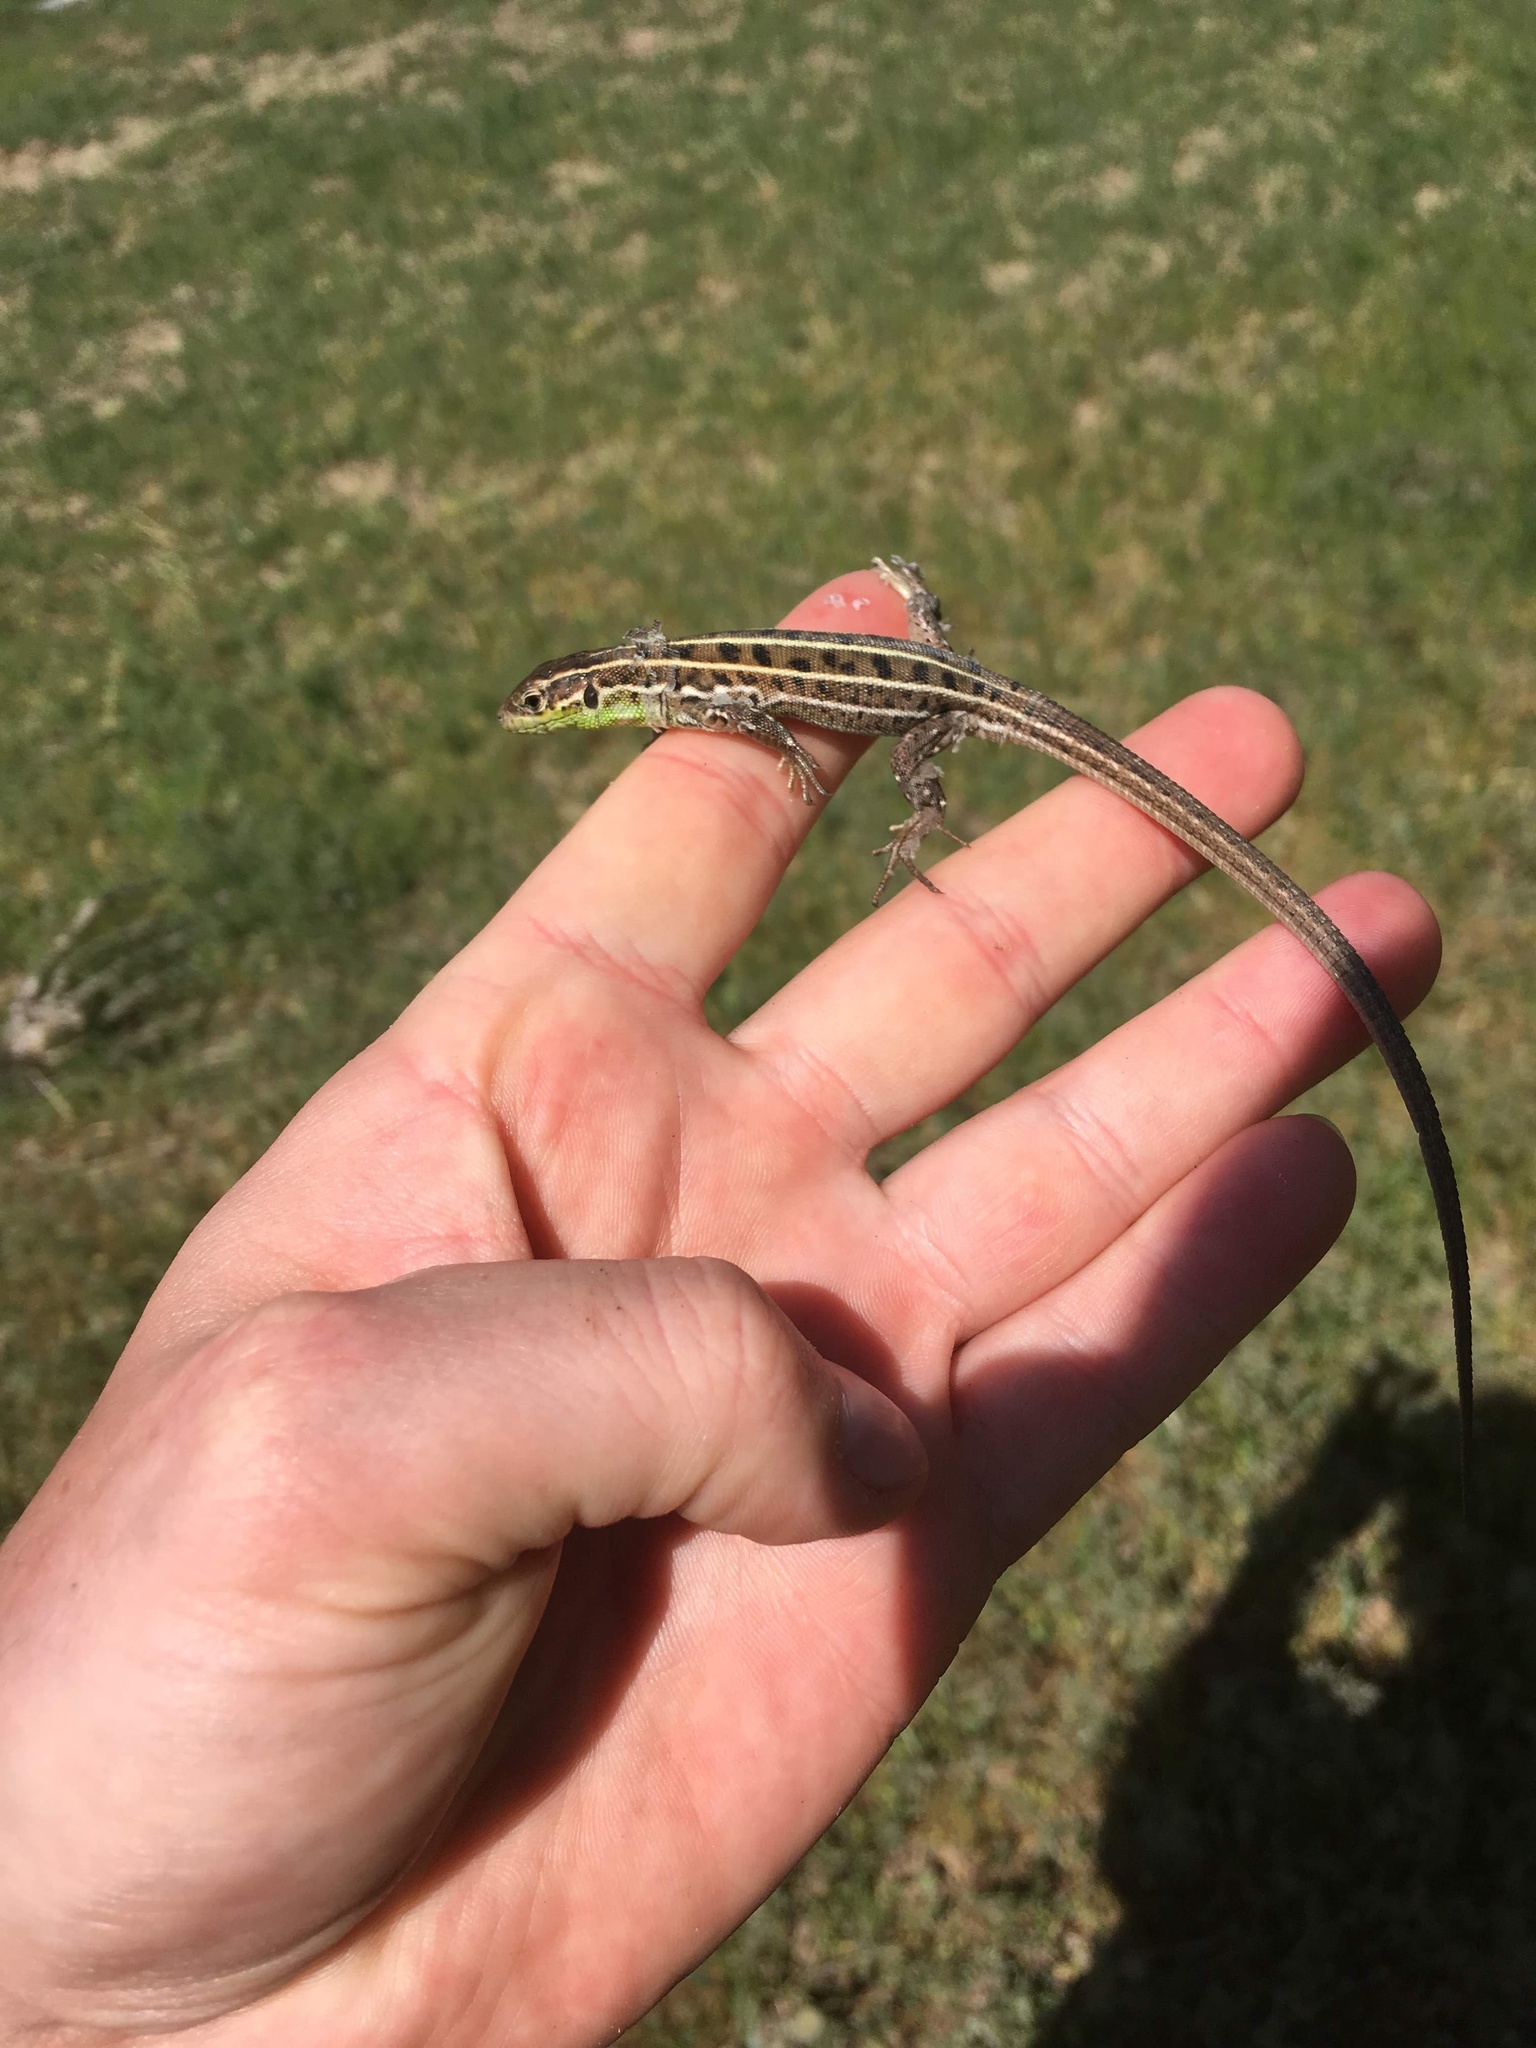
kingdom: Animalia
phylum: Chordata
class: Squamata
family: Lacertidae
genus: Lacerta
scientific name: Lacerta strigata
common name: Caspian green lizard
